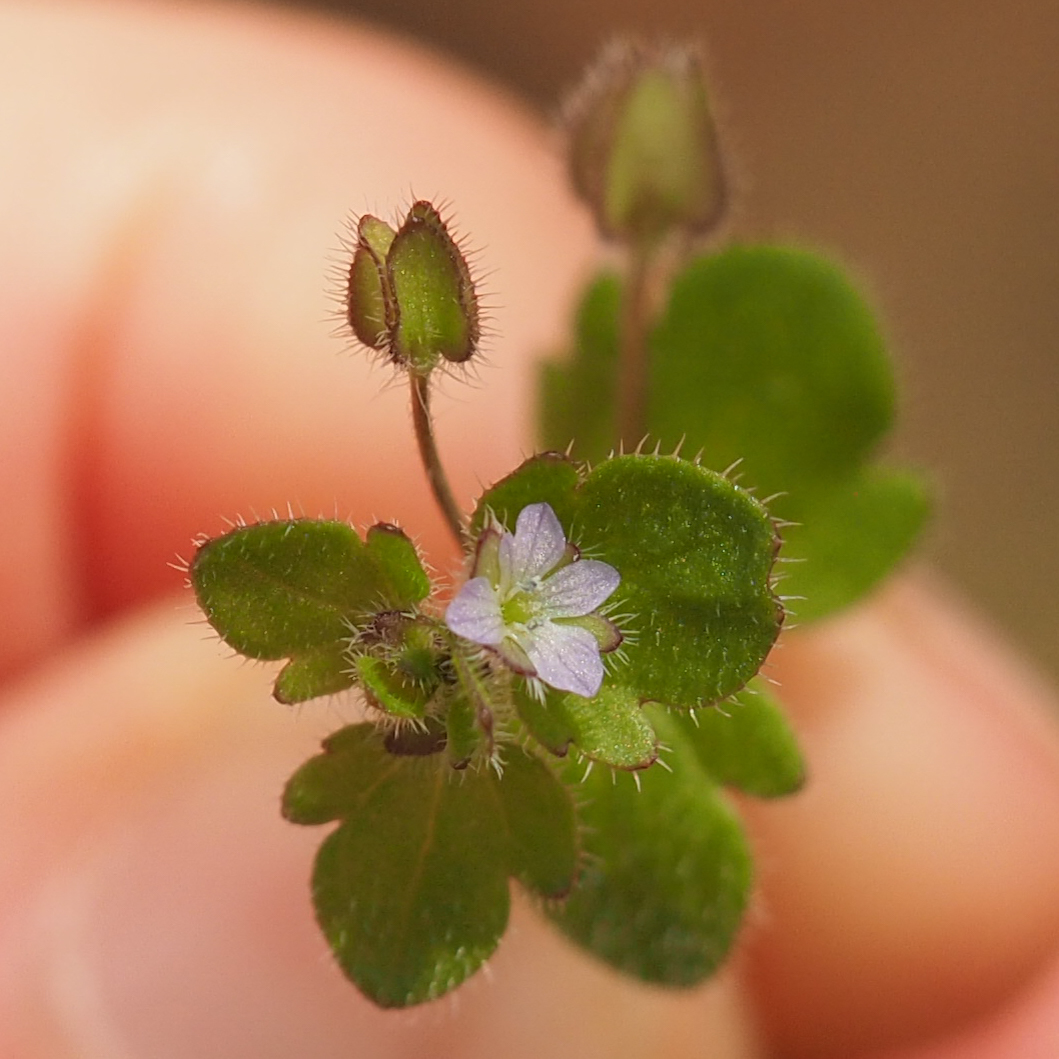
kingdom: Plantae
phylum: Tracheophyta
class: Magnoliopsida
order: Lamiales
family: Plantaginaceae
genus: Veronica
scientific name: Veronica sublobata
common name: False ivy-leaved speedwell
